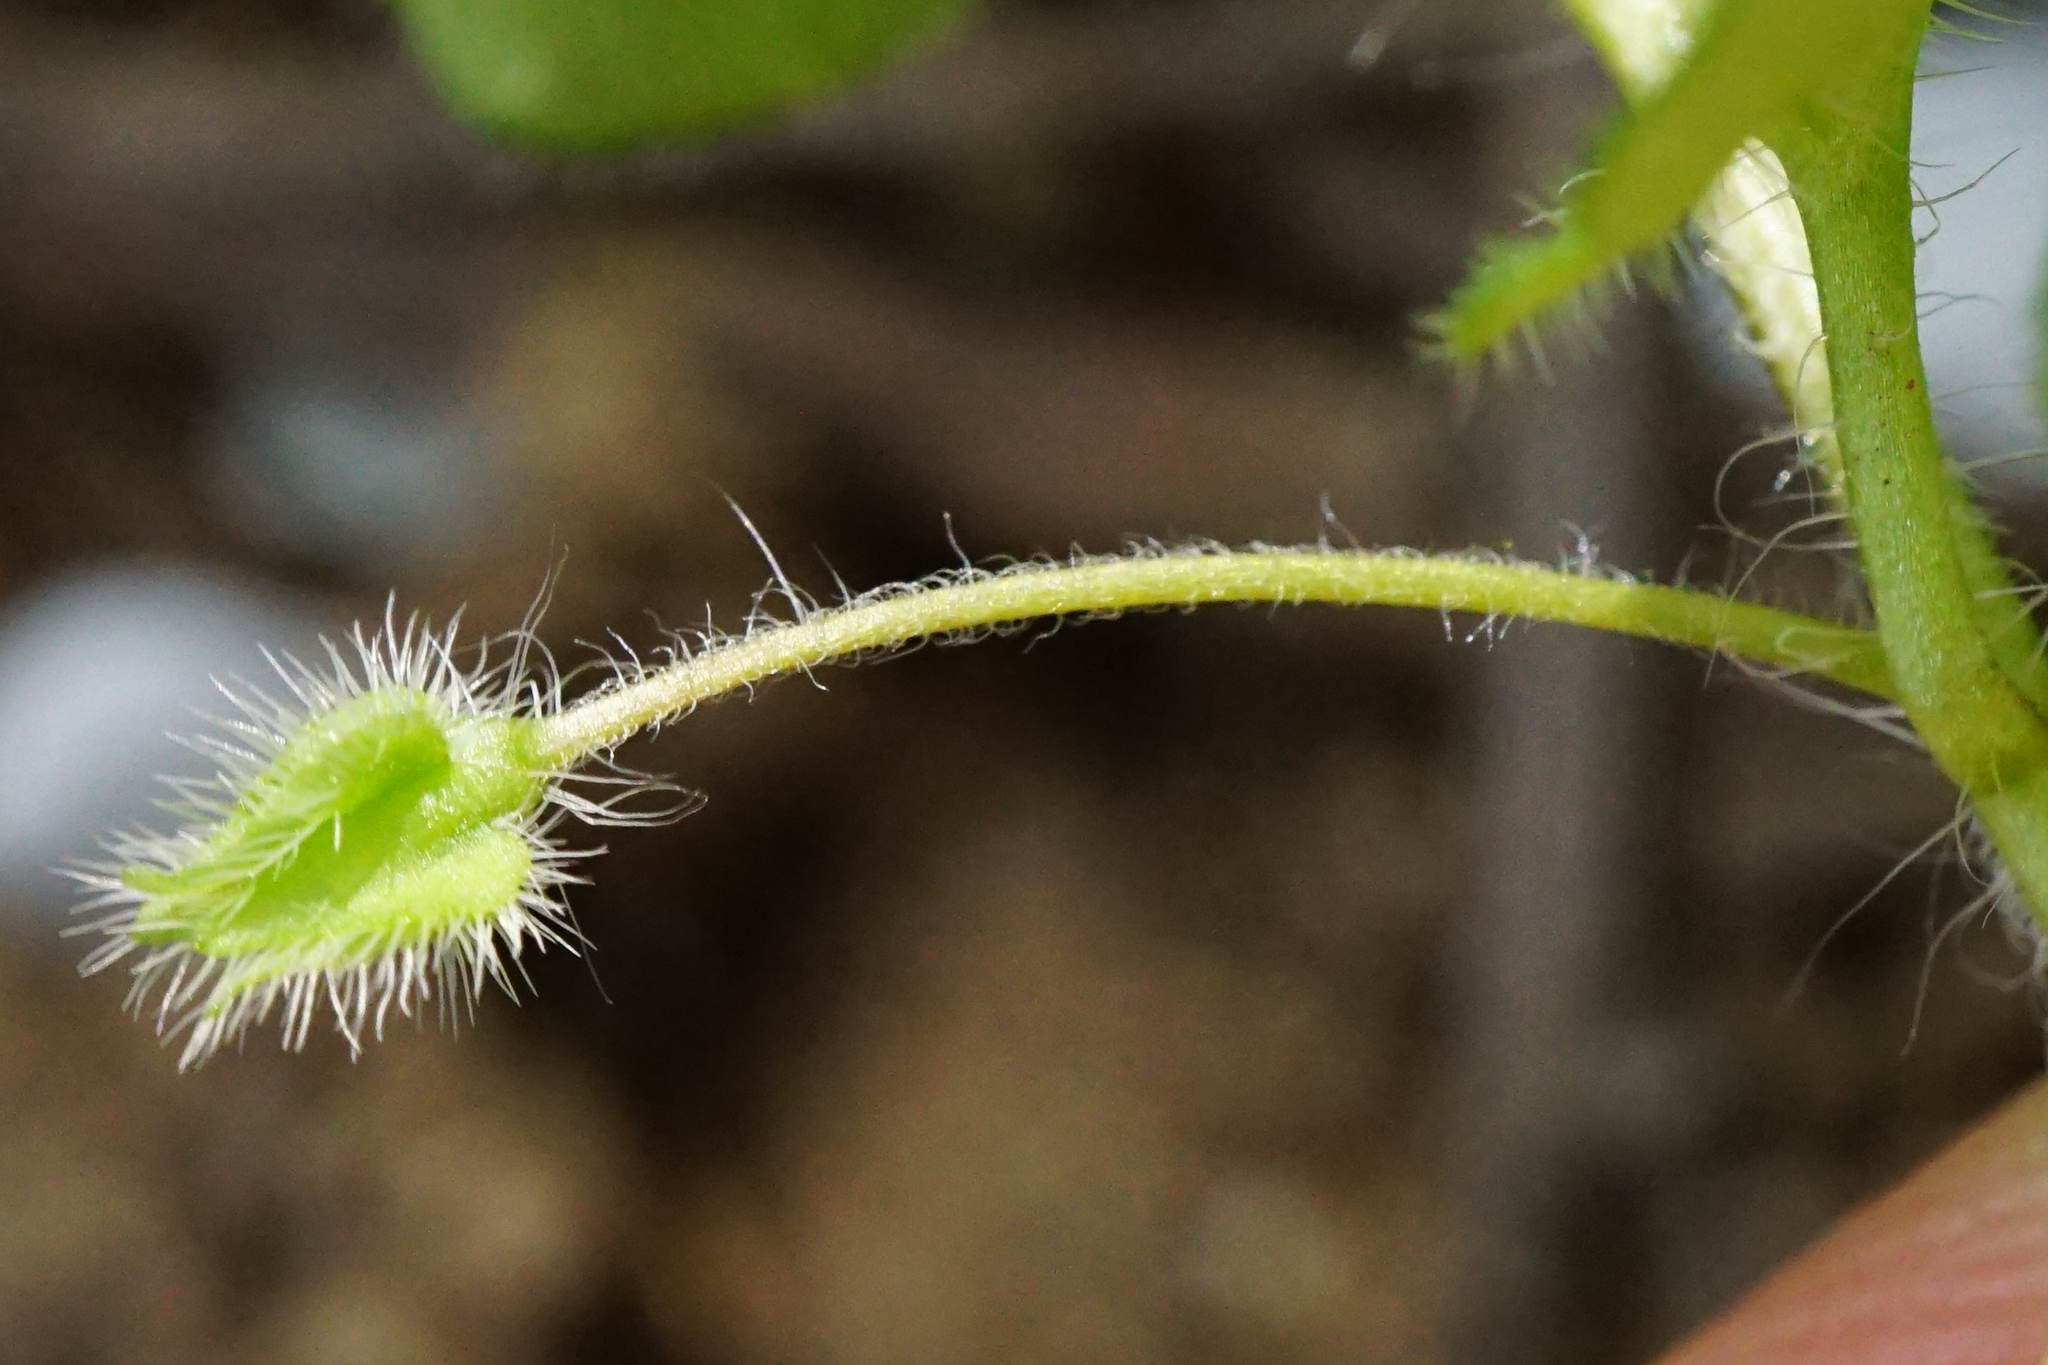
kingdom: Plantae
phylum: Tracheophyta
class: Magnoliopsida
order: Lamiales
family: Plantaginaceae
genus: Veronica
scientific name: Veronica sublobata
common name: False ivy-leaved speedwell
